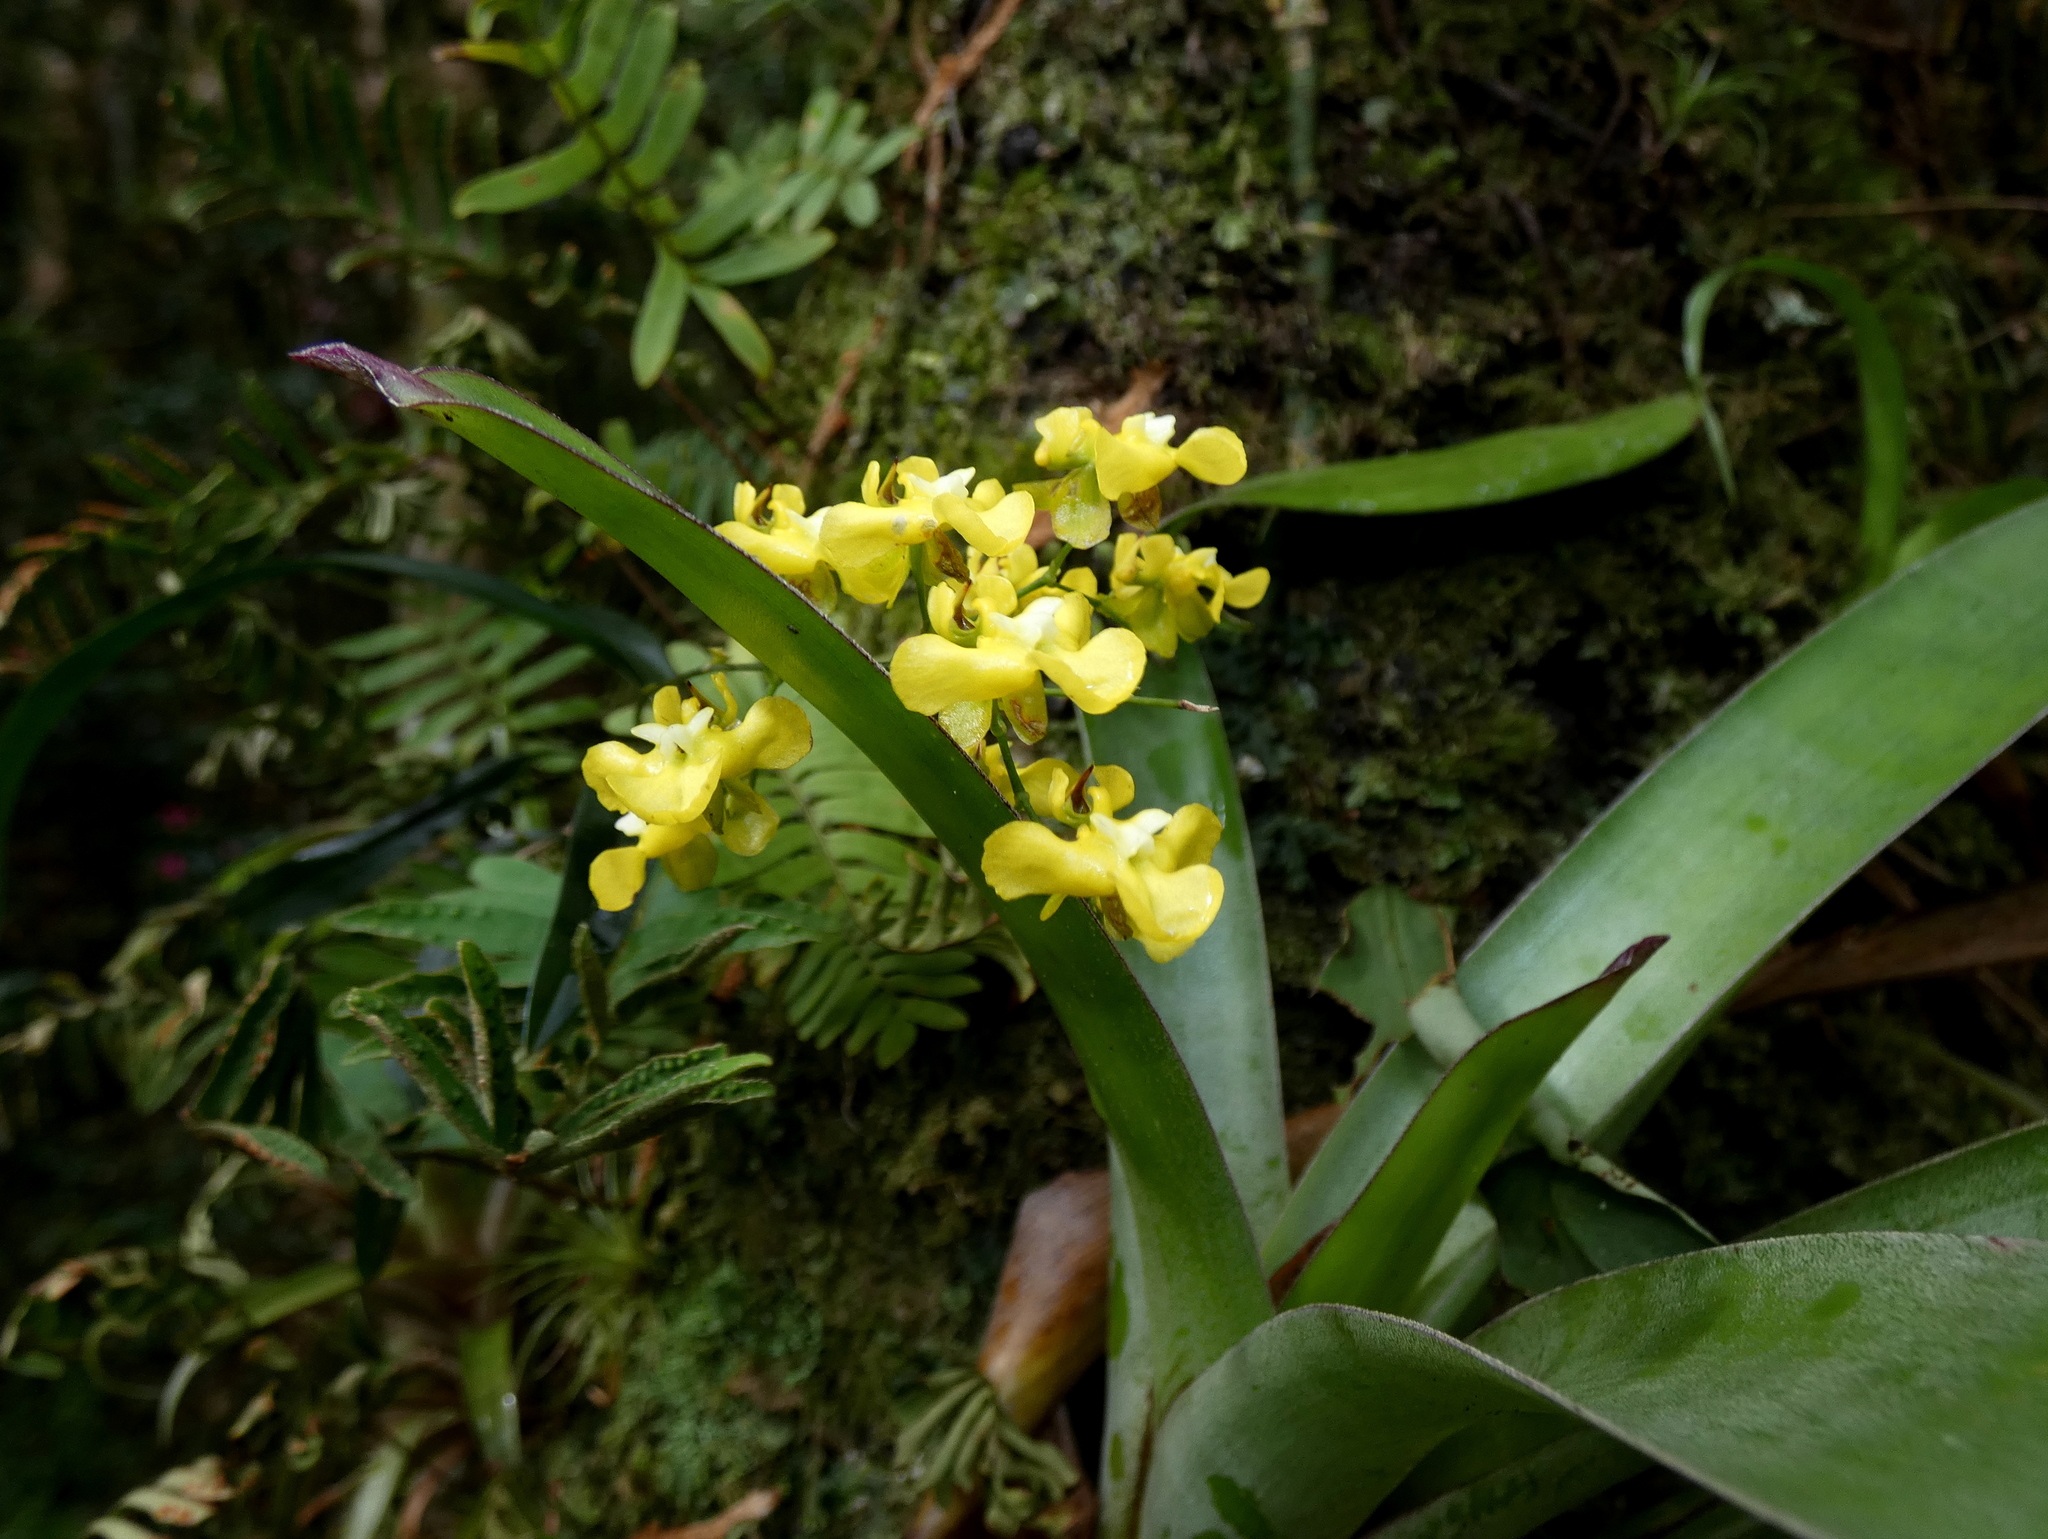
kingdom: Plantae
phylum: Tracheophyta
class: Liliopsida
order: Asparagales
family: Orchidaceae
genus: Oncidium
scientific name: Oncidium cheirophorum
